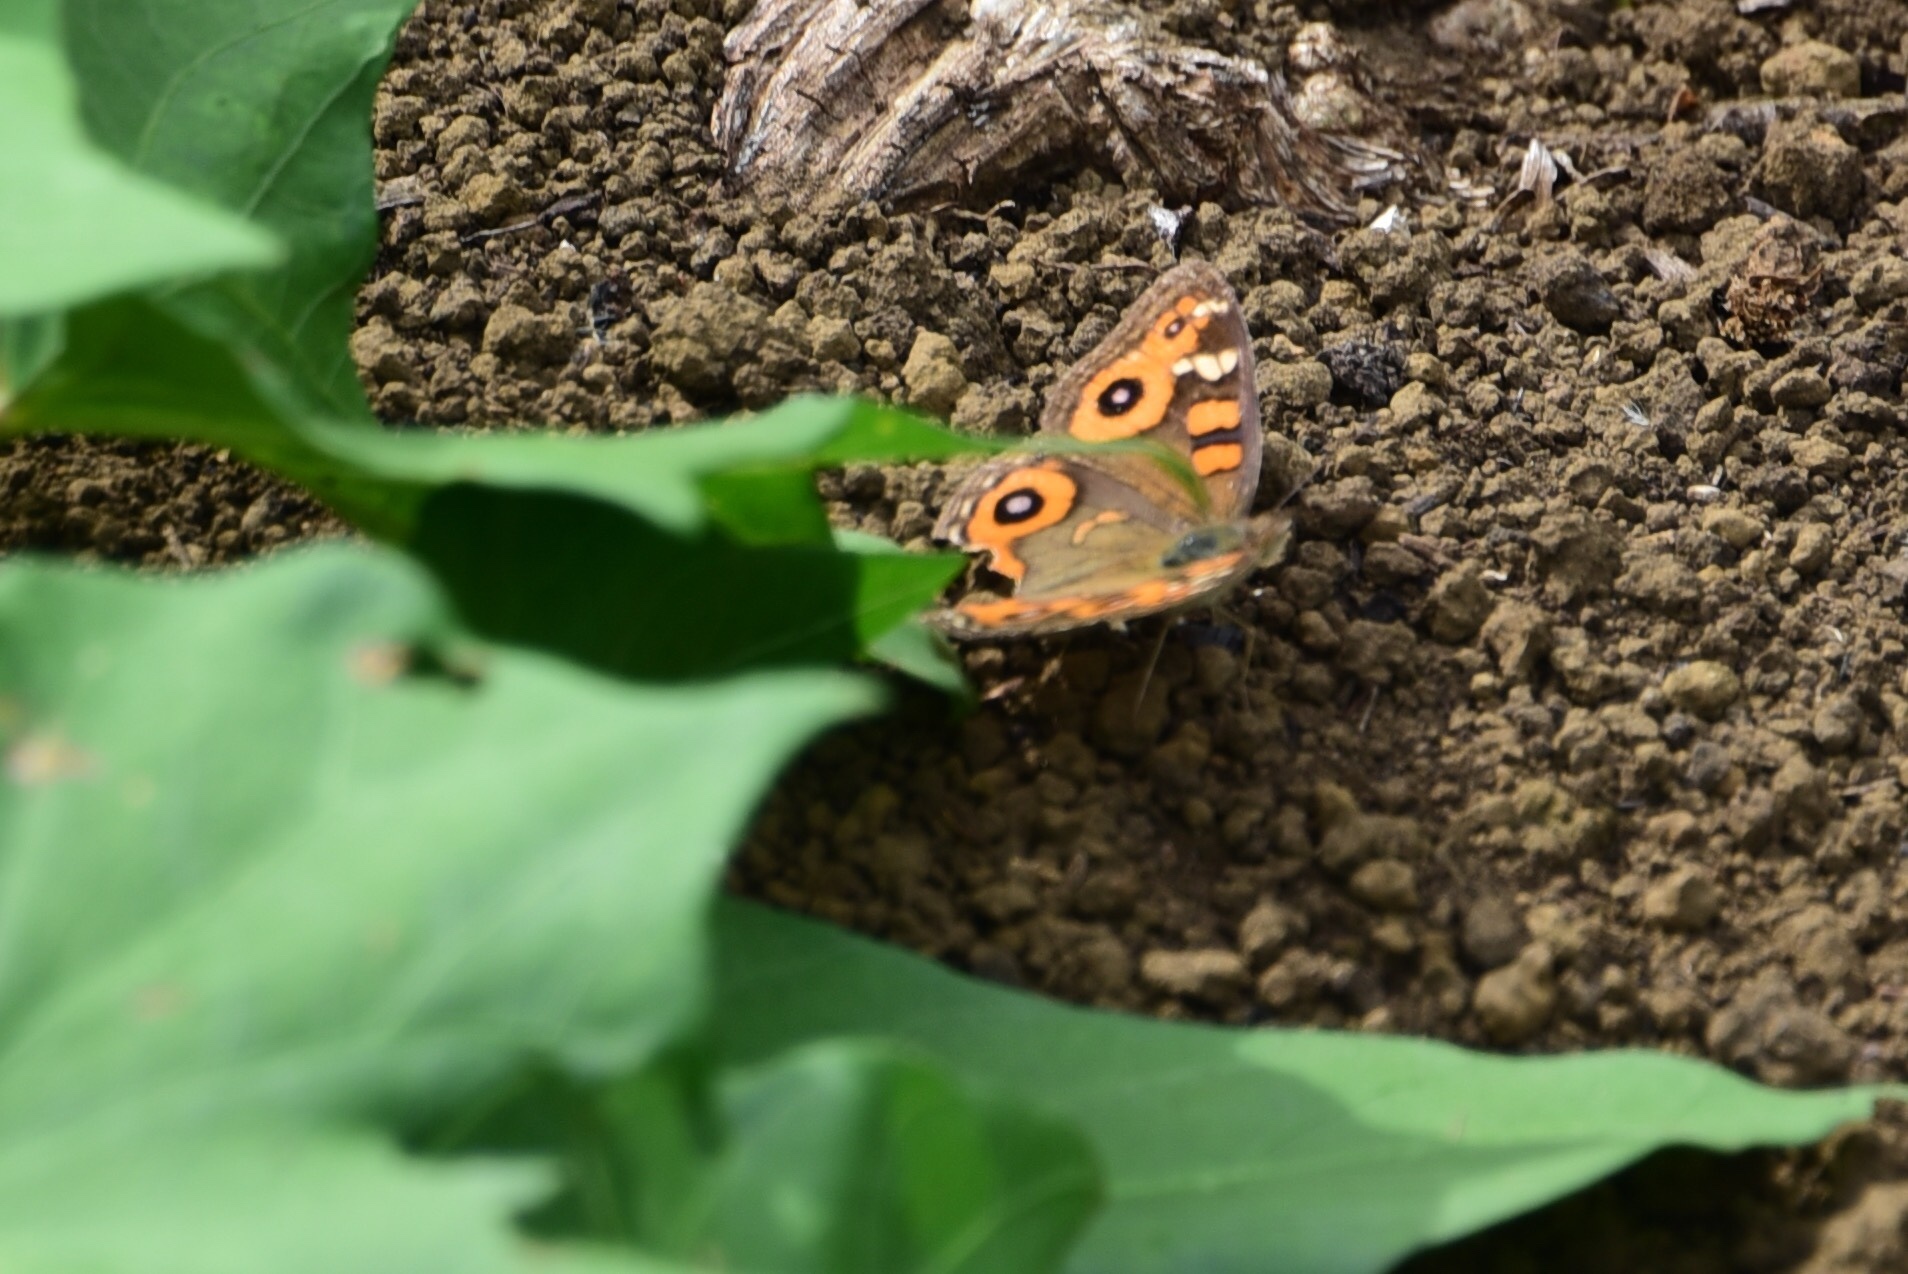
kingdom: Animalia
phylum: Arthropoda
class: Insecta
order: Lepidoptera
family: Nymphalidae
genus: Junonia
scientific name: Junonia villida
